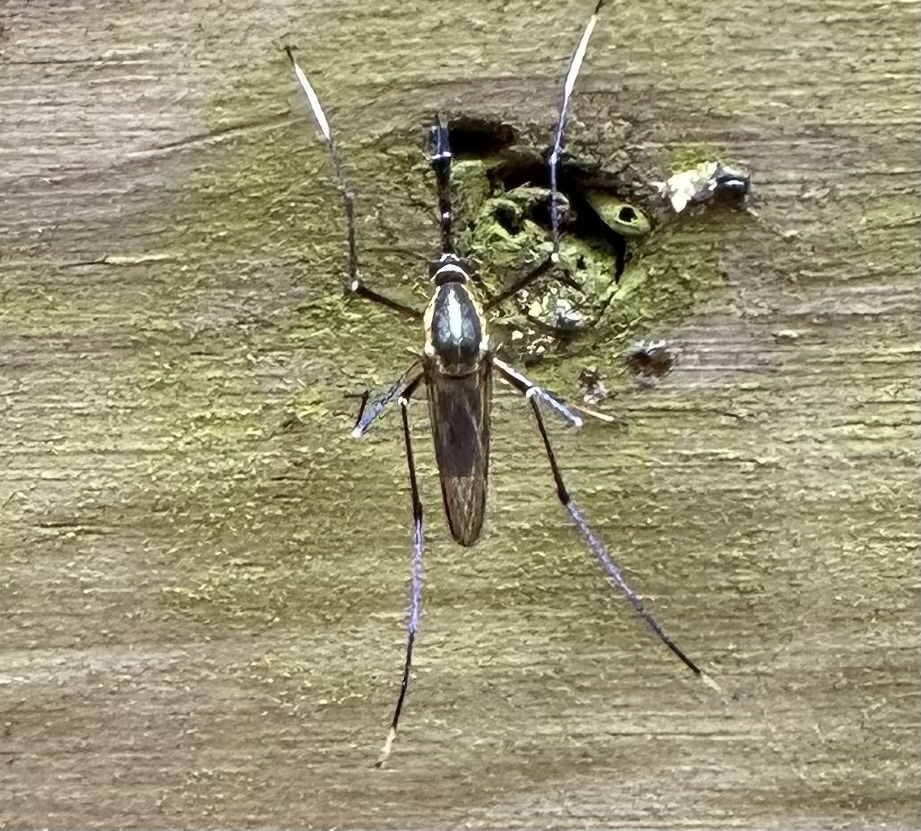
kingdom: Animalia
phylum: Arthropoda
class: Insecta
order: Diptera
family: Culicidae
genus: Toxorhynchites
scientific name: Toxorhynchites rutilus
